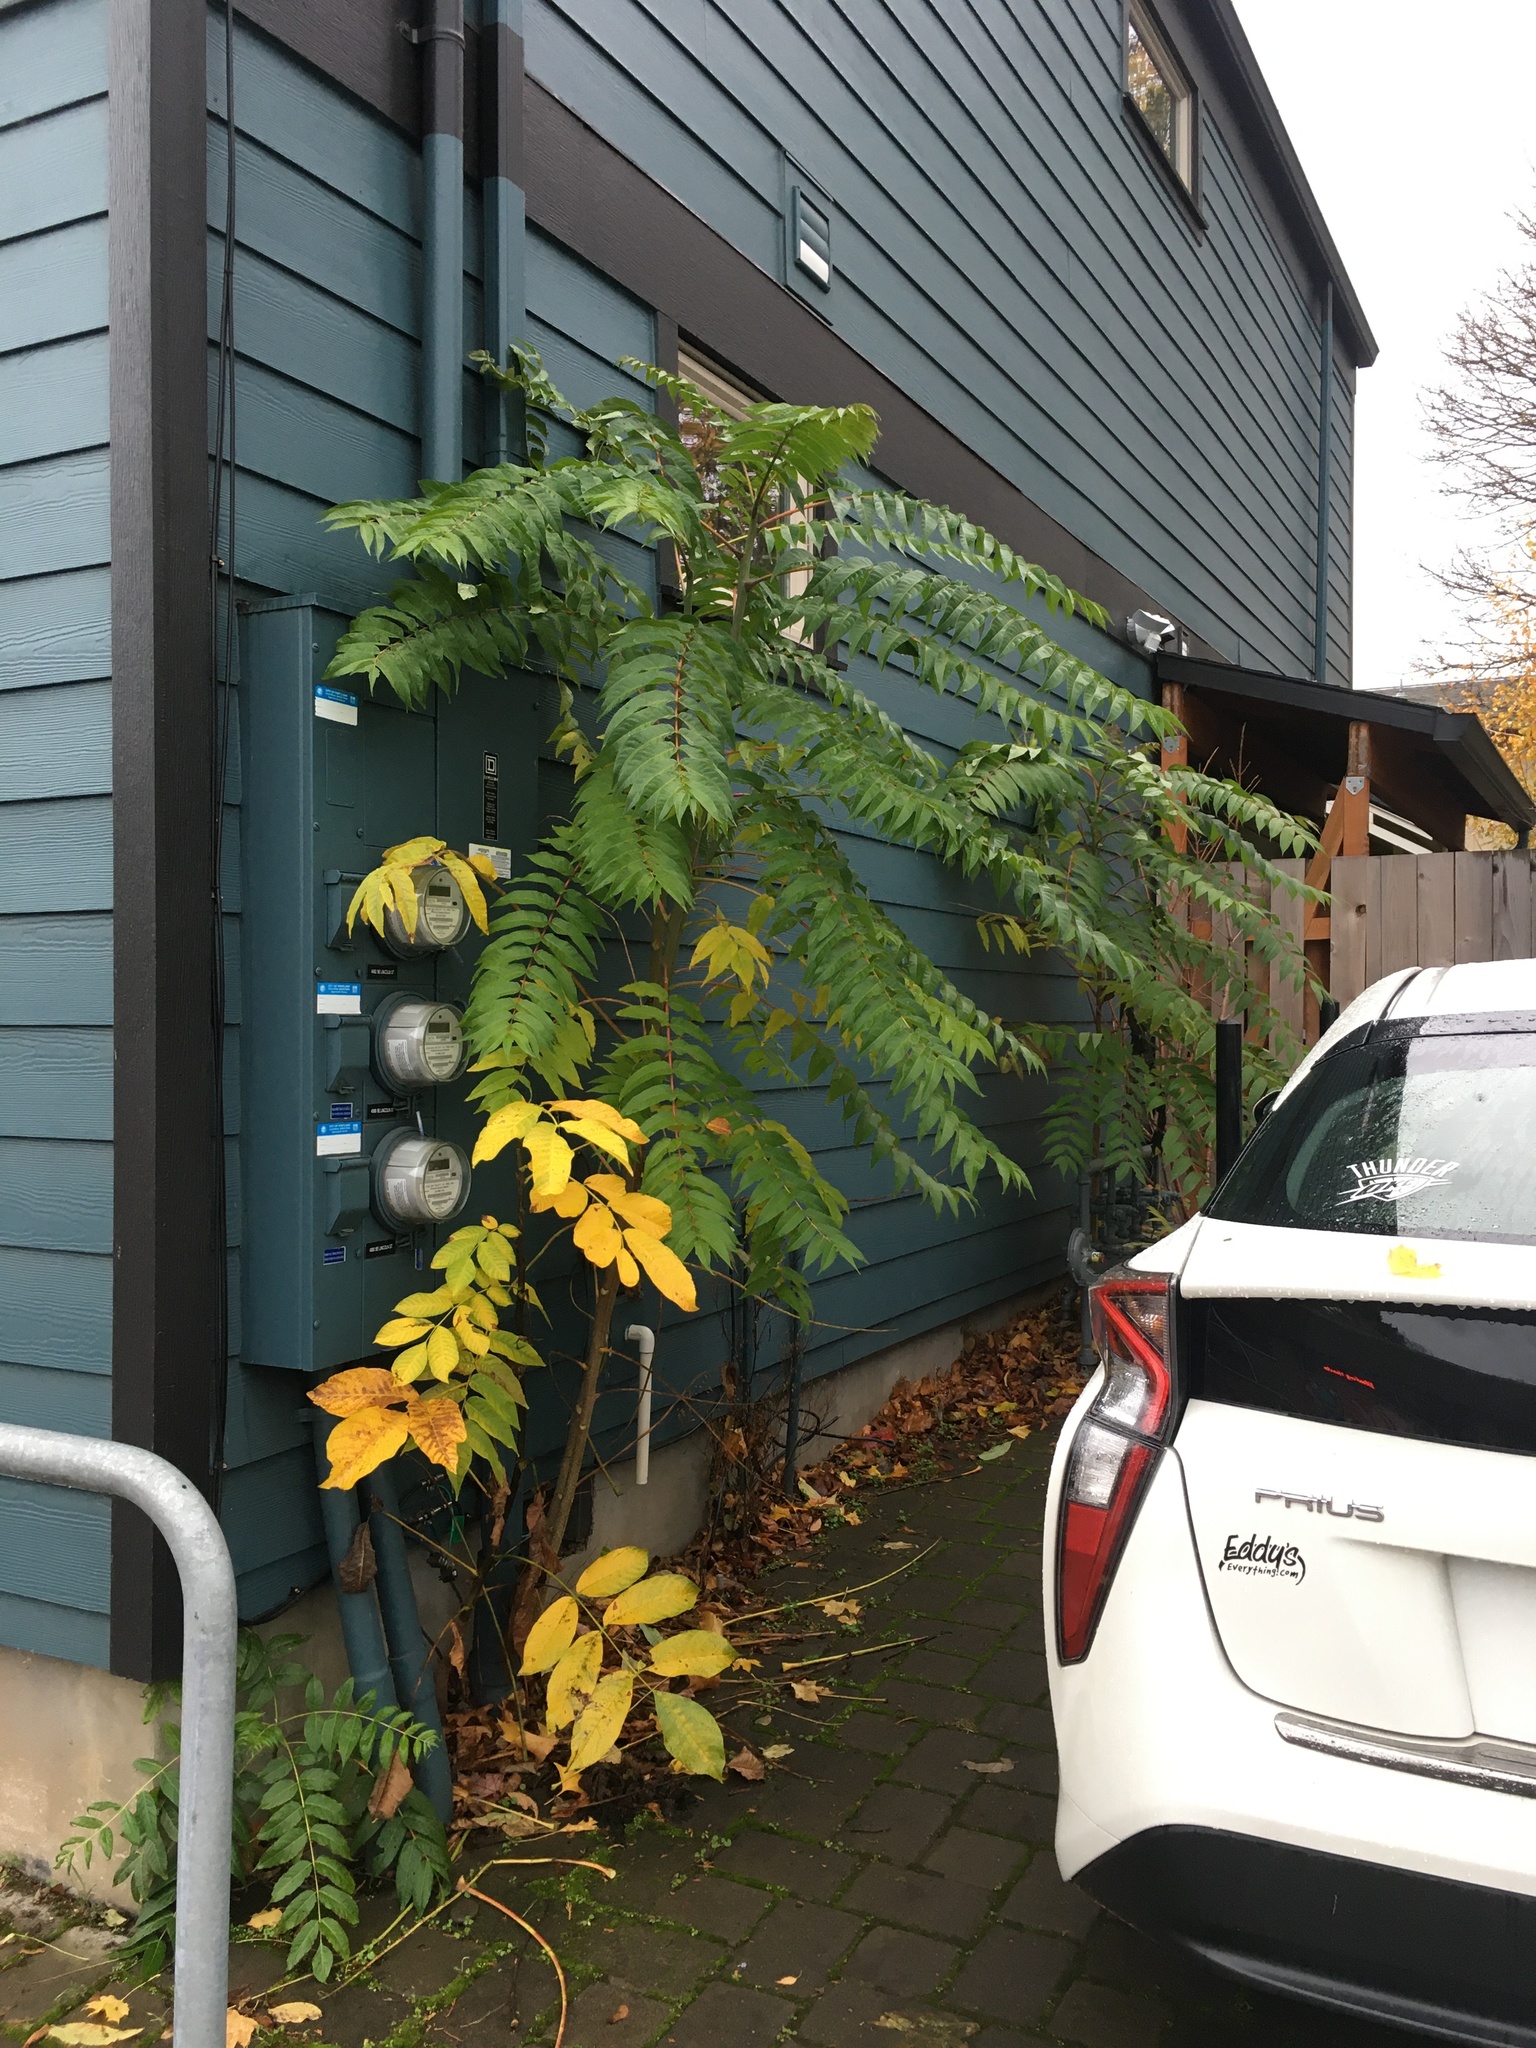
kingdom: Plantae
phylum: Tracheophyta
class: Magnoliopsida
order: Sapindales
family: Simaroubaceae
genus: Ailanthus
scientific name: Ailanthus altissima
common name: Tree-of-heaven
